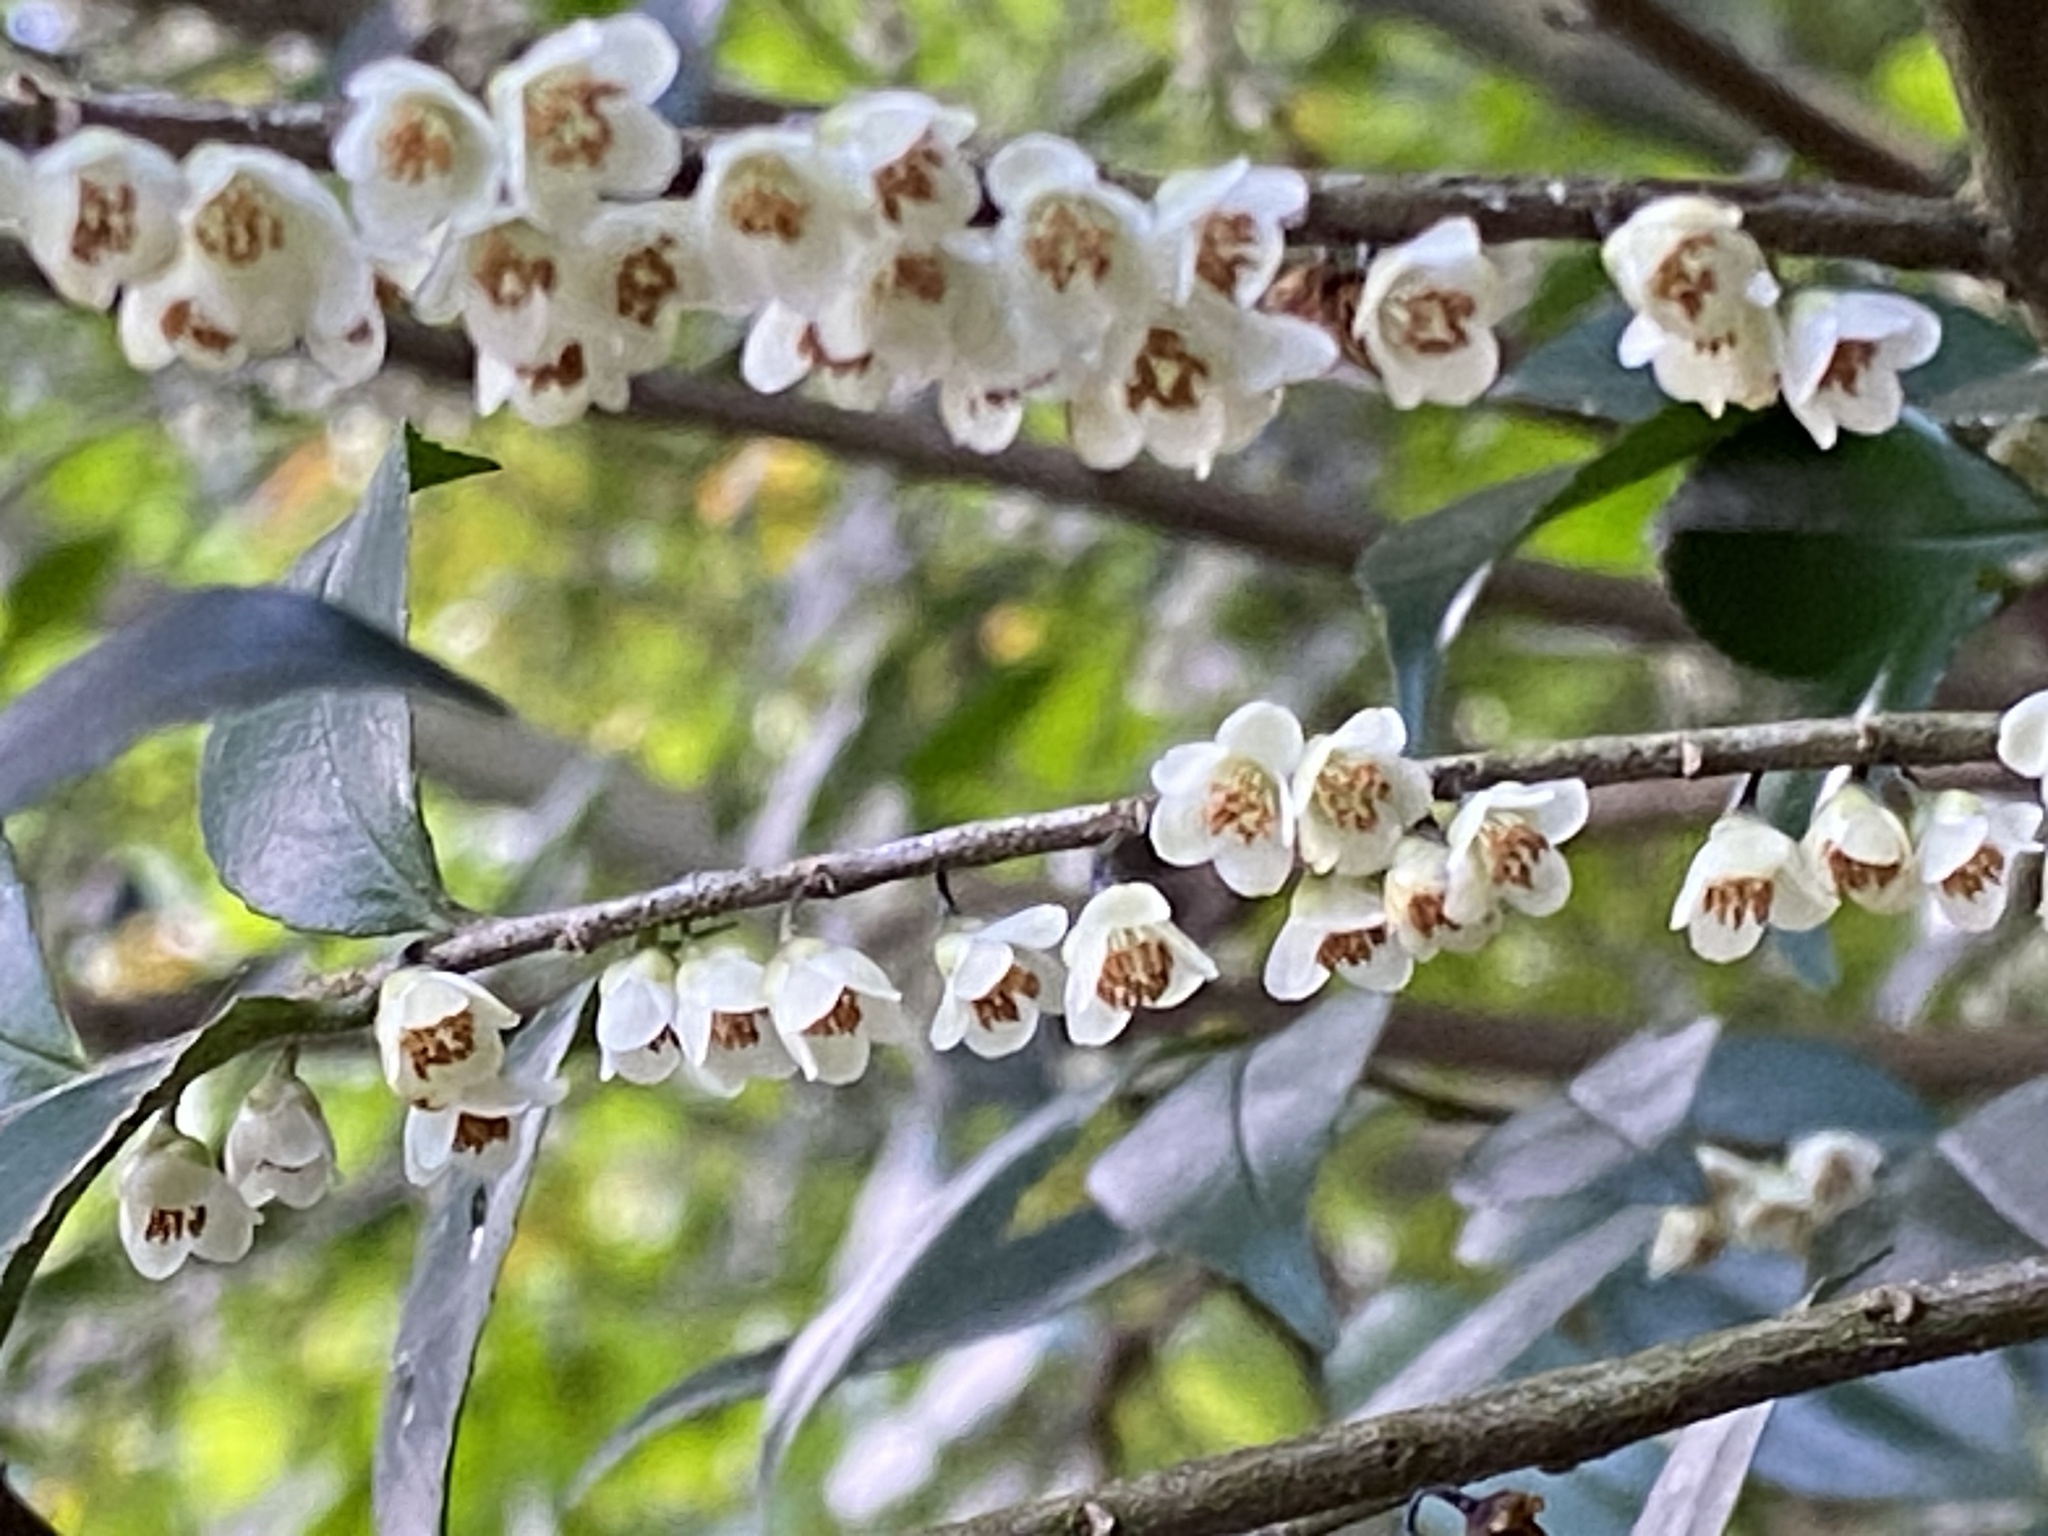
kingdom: Plantae
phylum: Tracheophyta
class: Magnoliopsida
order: Ericales
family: Pentaphylacaceae
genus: Eurya
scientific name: Eurya chinensis
